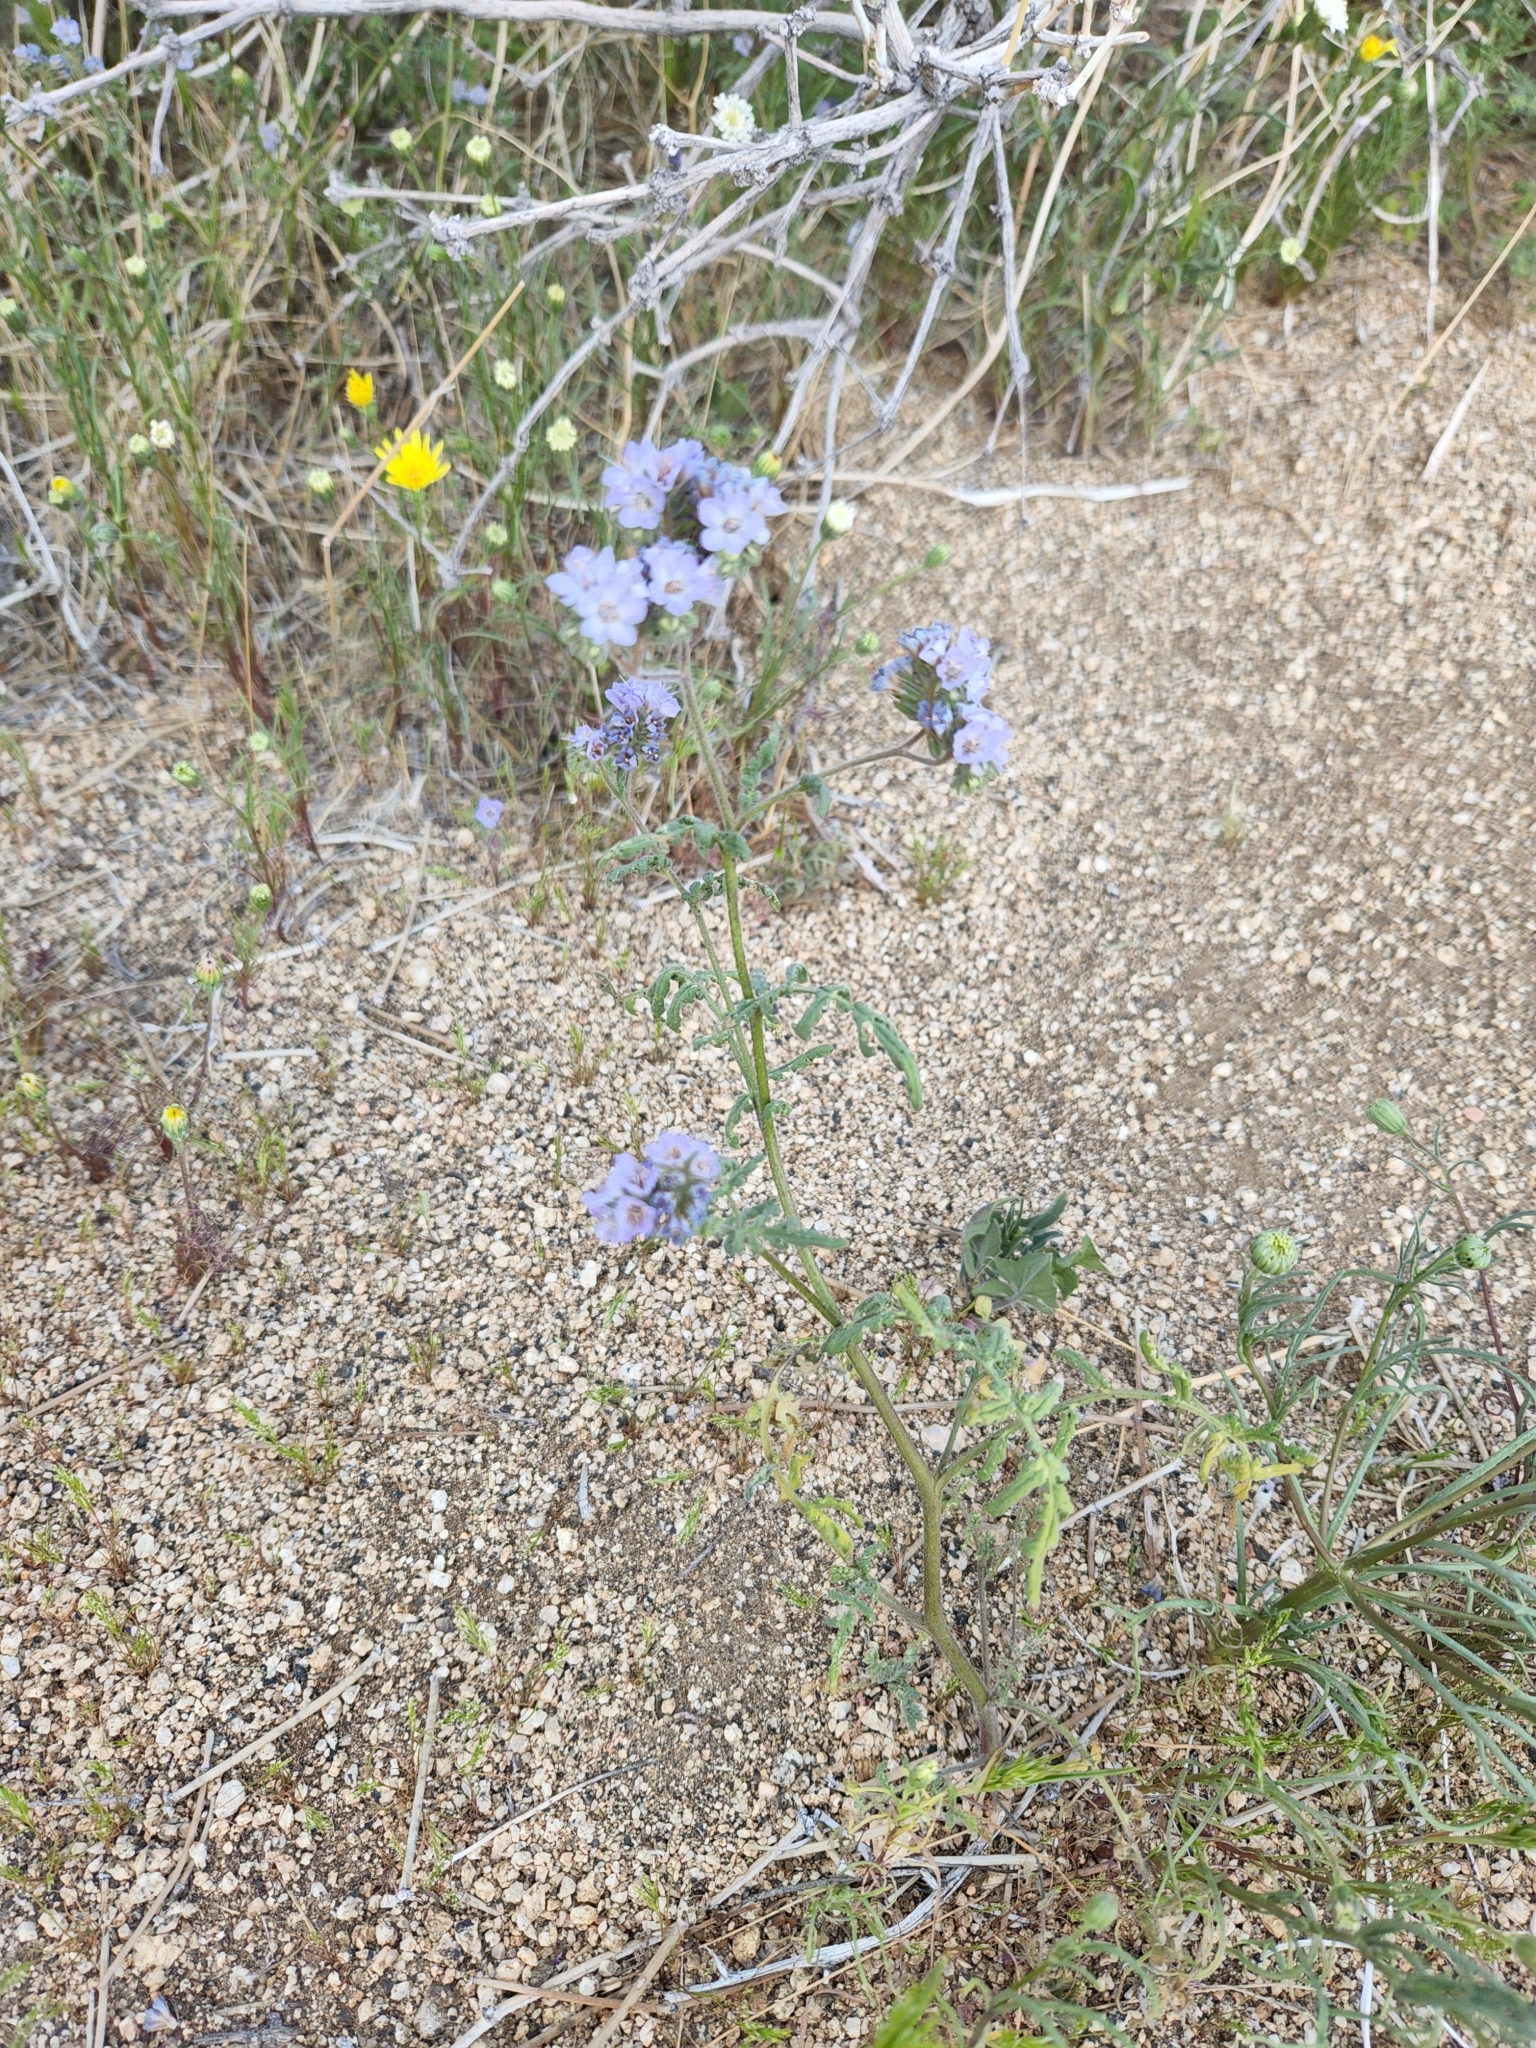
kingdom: Plantae
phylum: Tracheophyta
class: Magnoliopsida
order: Boraginales
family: Hydrophyllaceae
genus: Phacelia
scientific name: Phacelia distans
